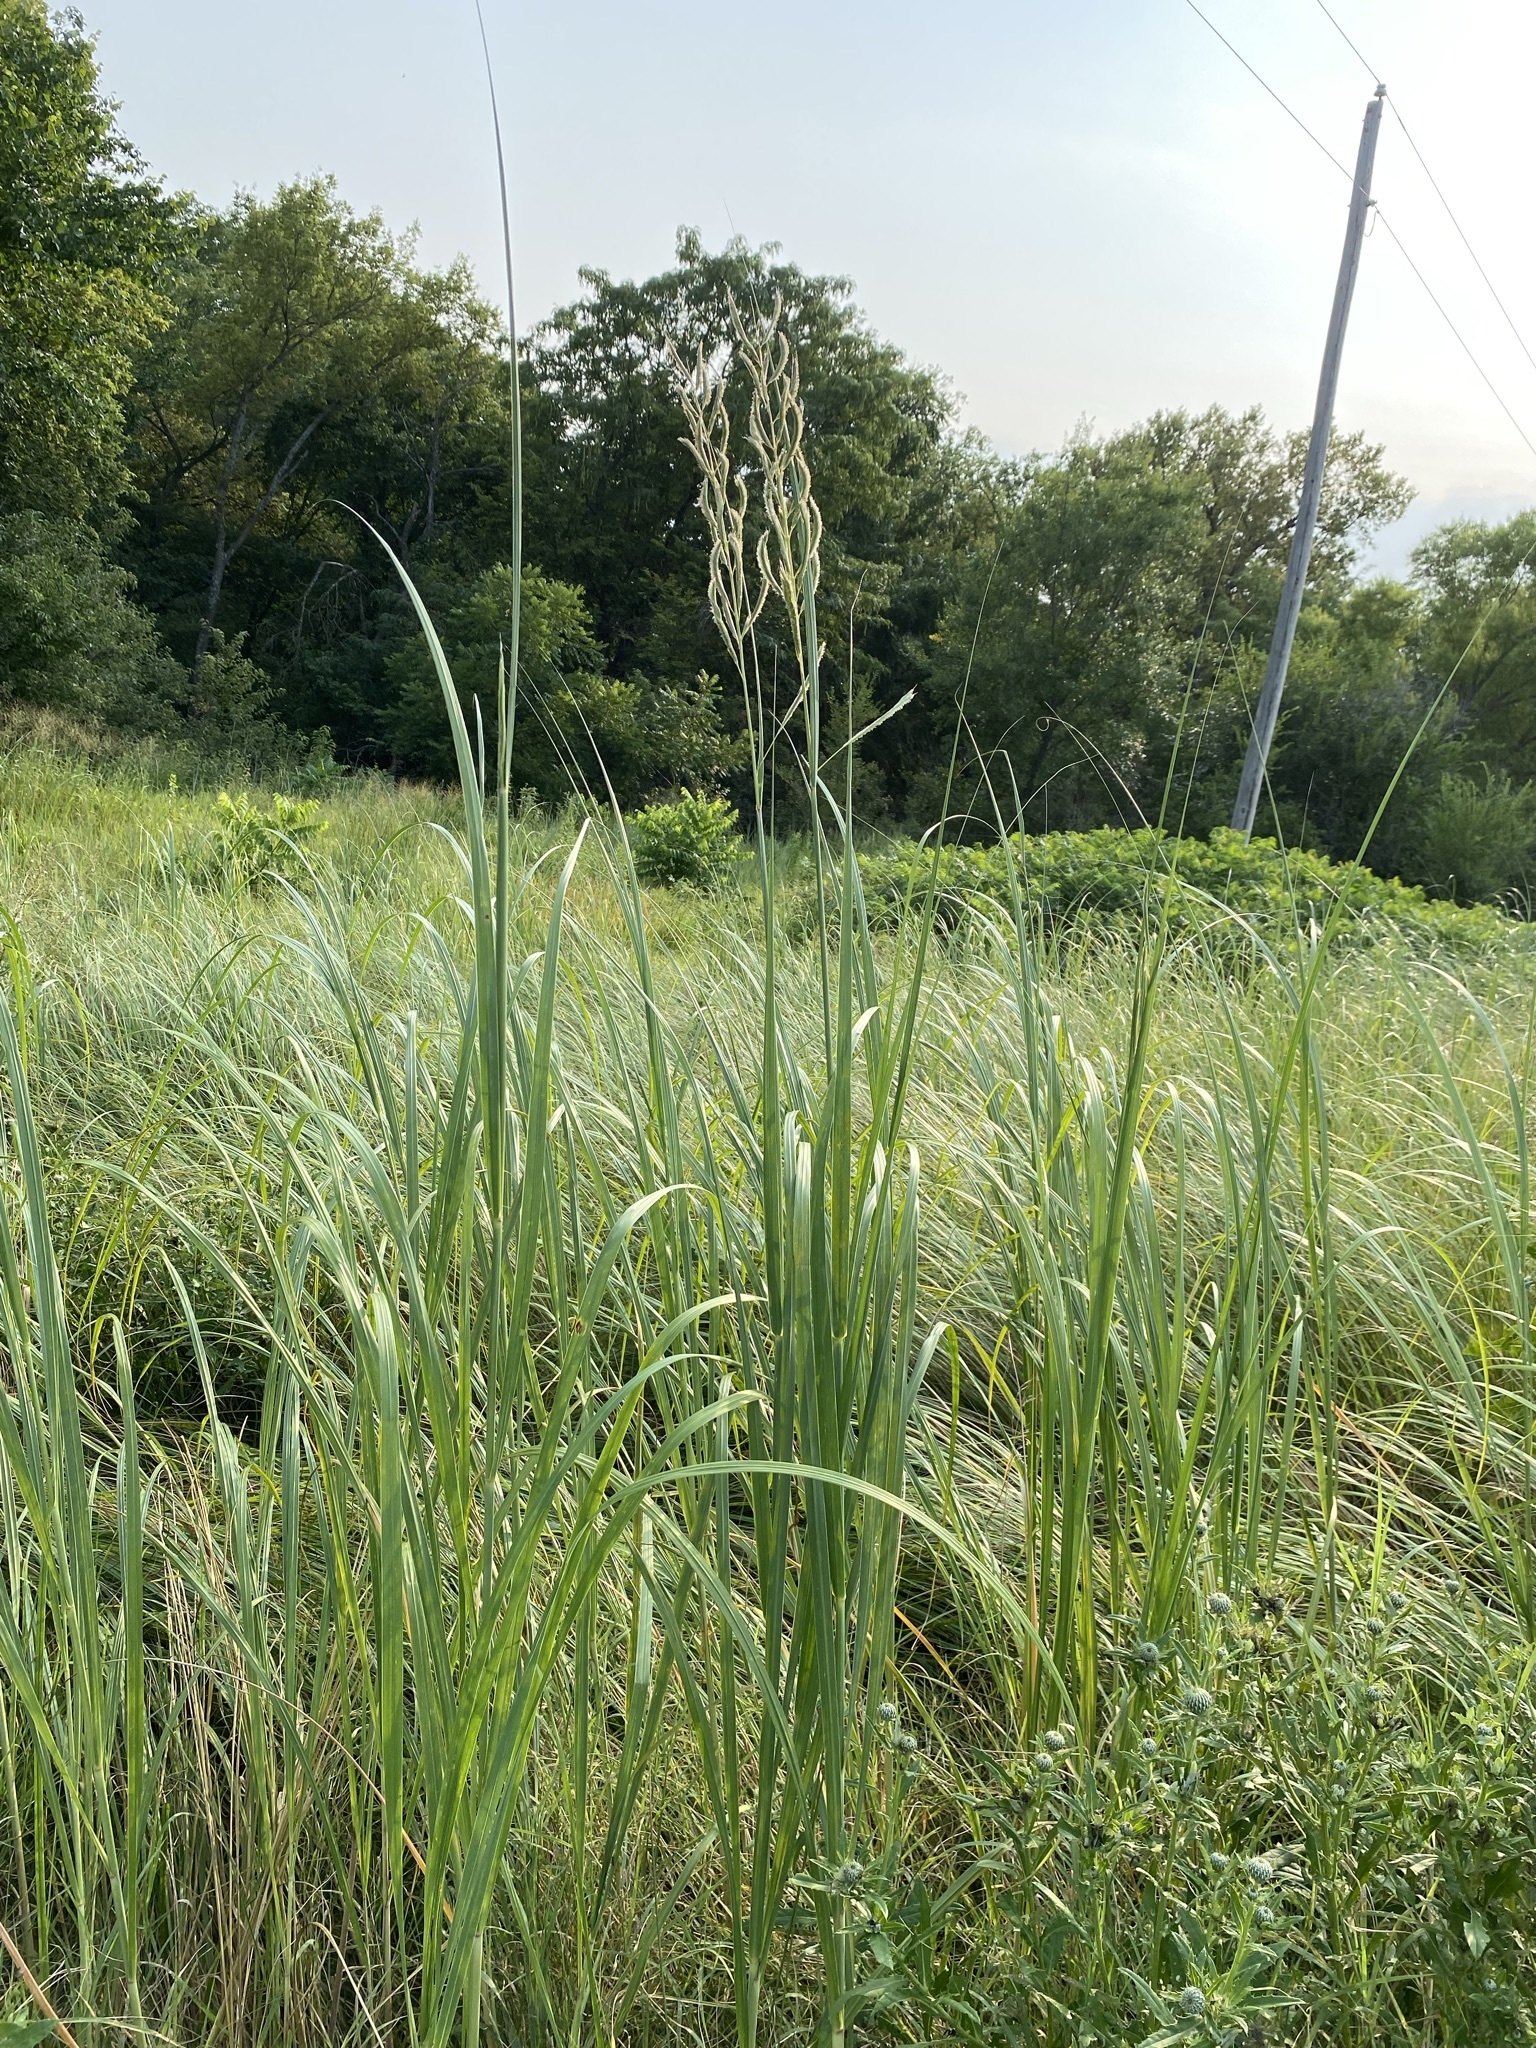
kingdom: Plantae
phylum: Tracheophyta
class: Liliopsida
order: Poales
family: Poaceae
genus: Sporobolus
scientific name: Sporobolus michauxianus
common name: Freshwater cordgrass
